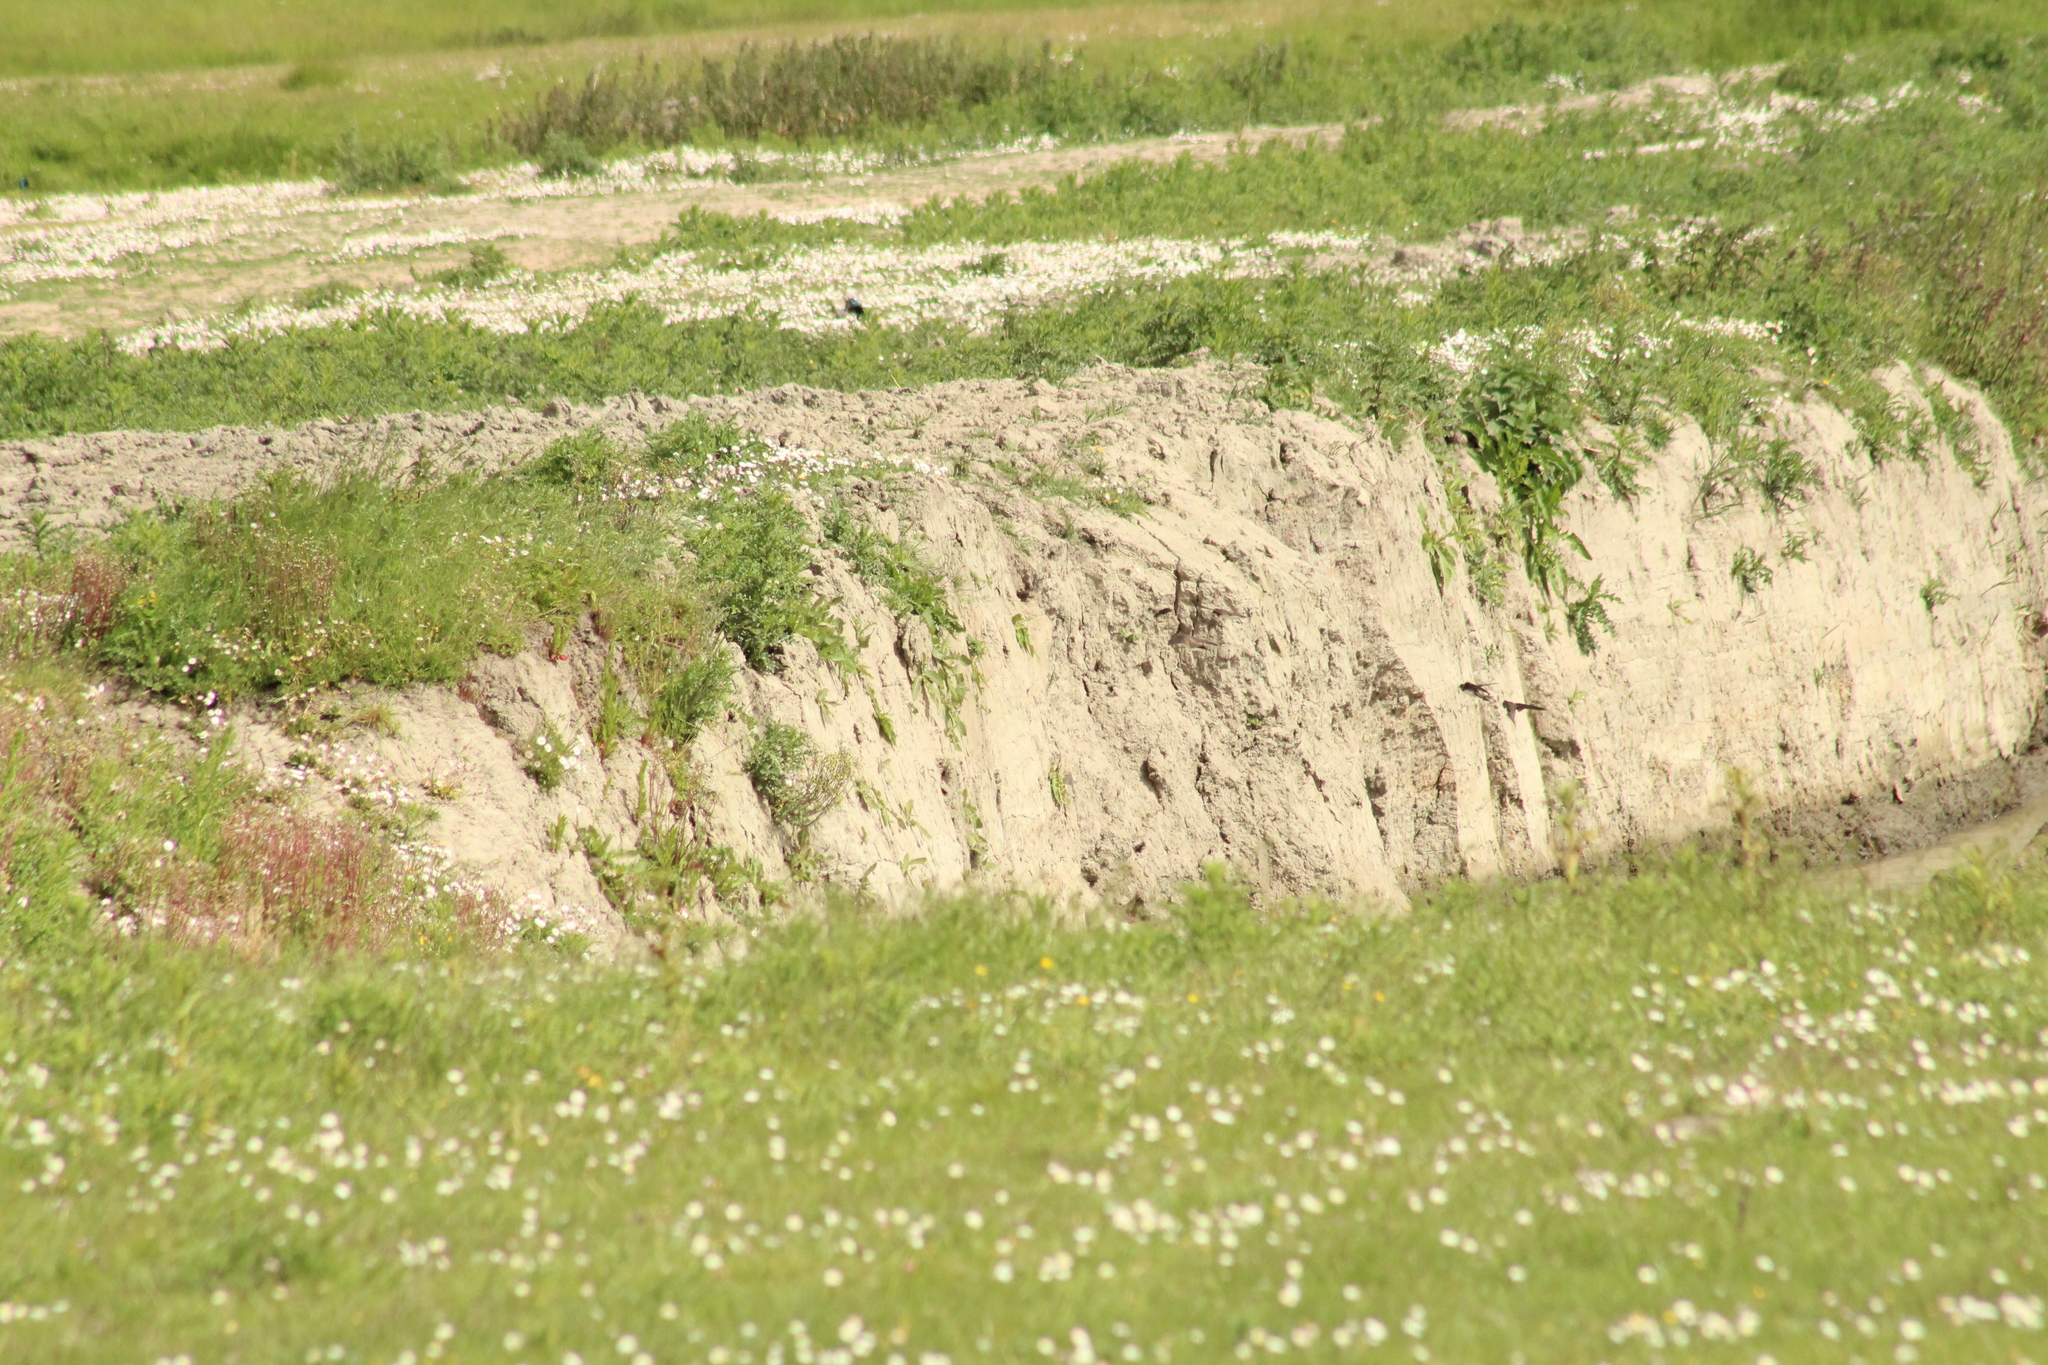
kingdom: Animalia
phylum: Chordata
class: Aves
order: Passeriformes
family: Hirundinidae
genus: Riparia
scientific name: Riparia riparia
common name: Sand martin
